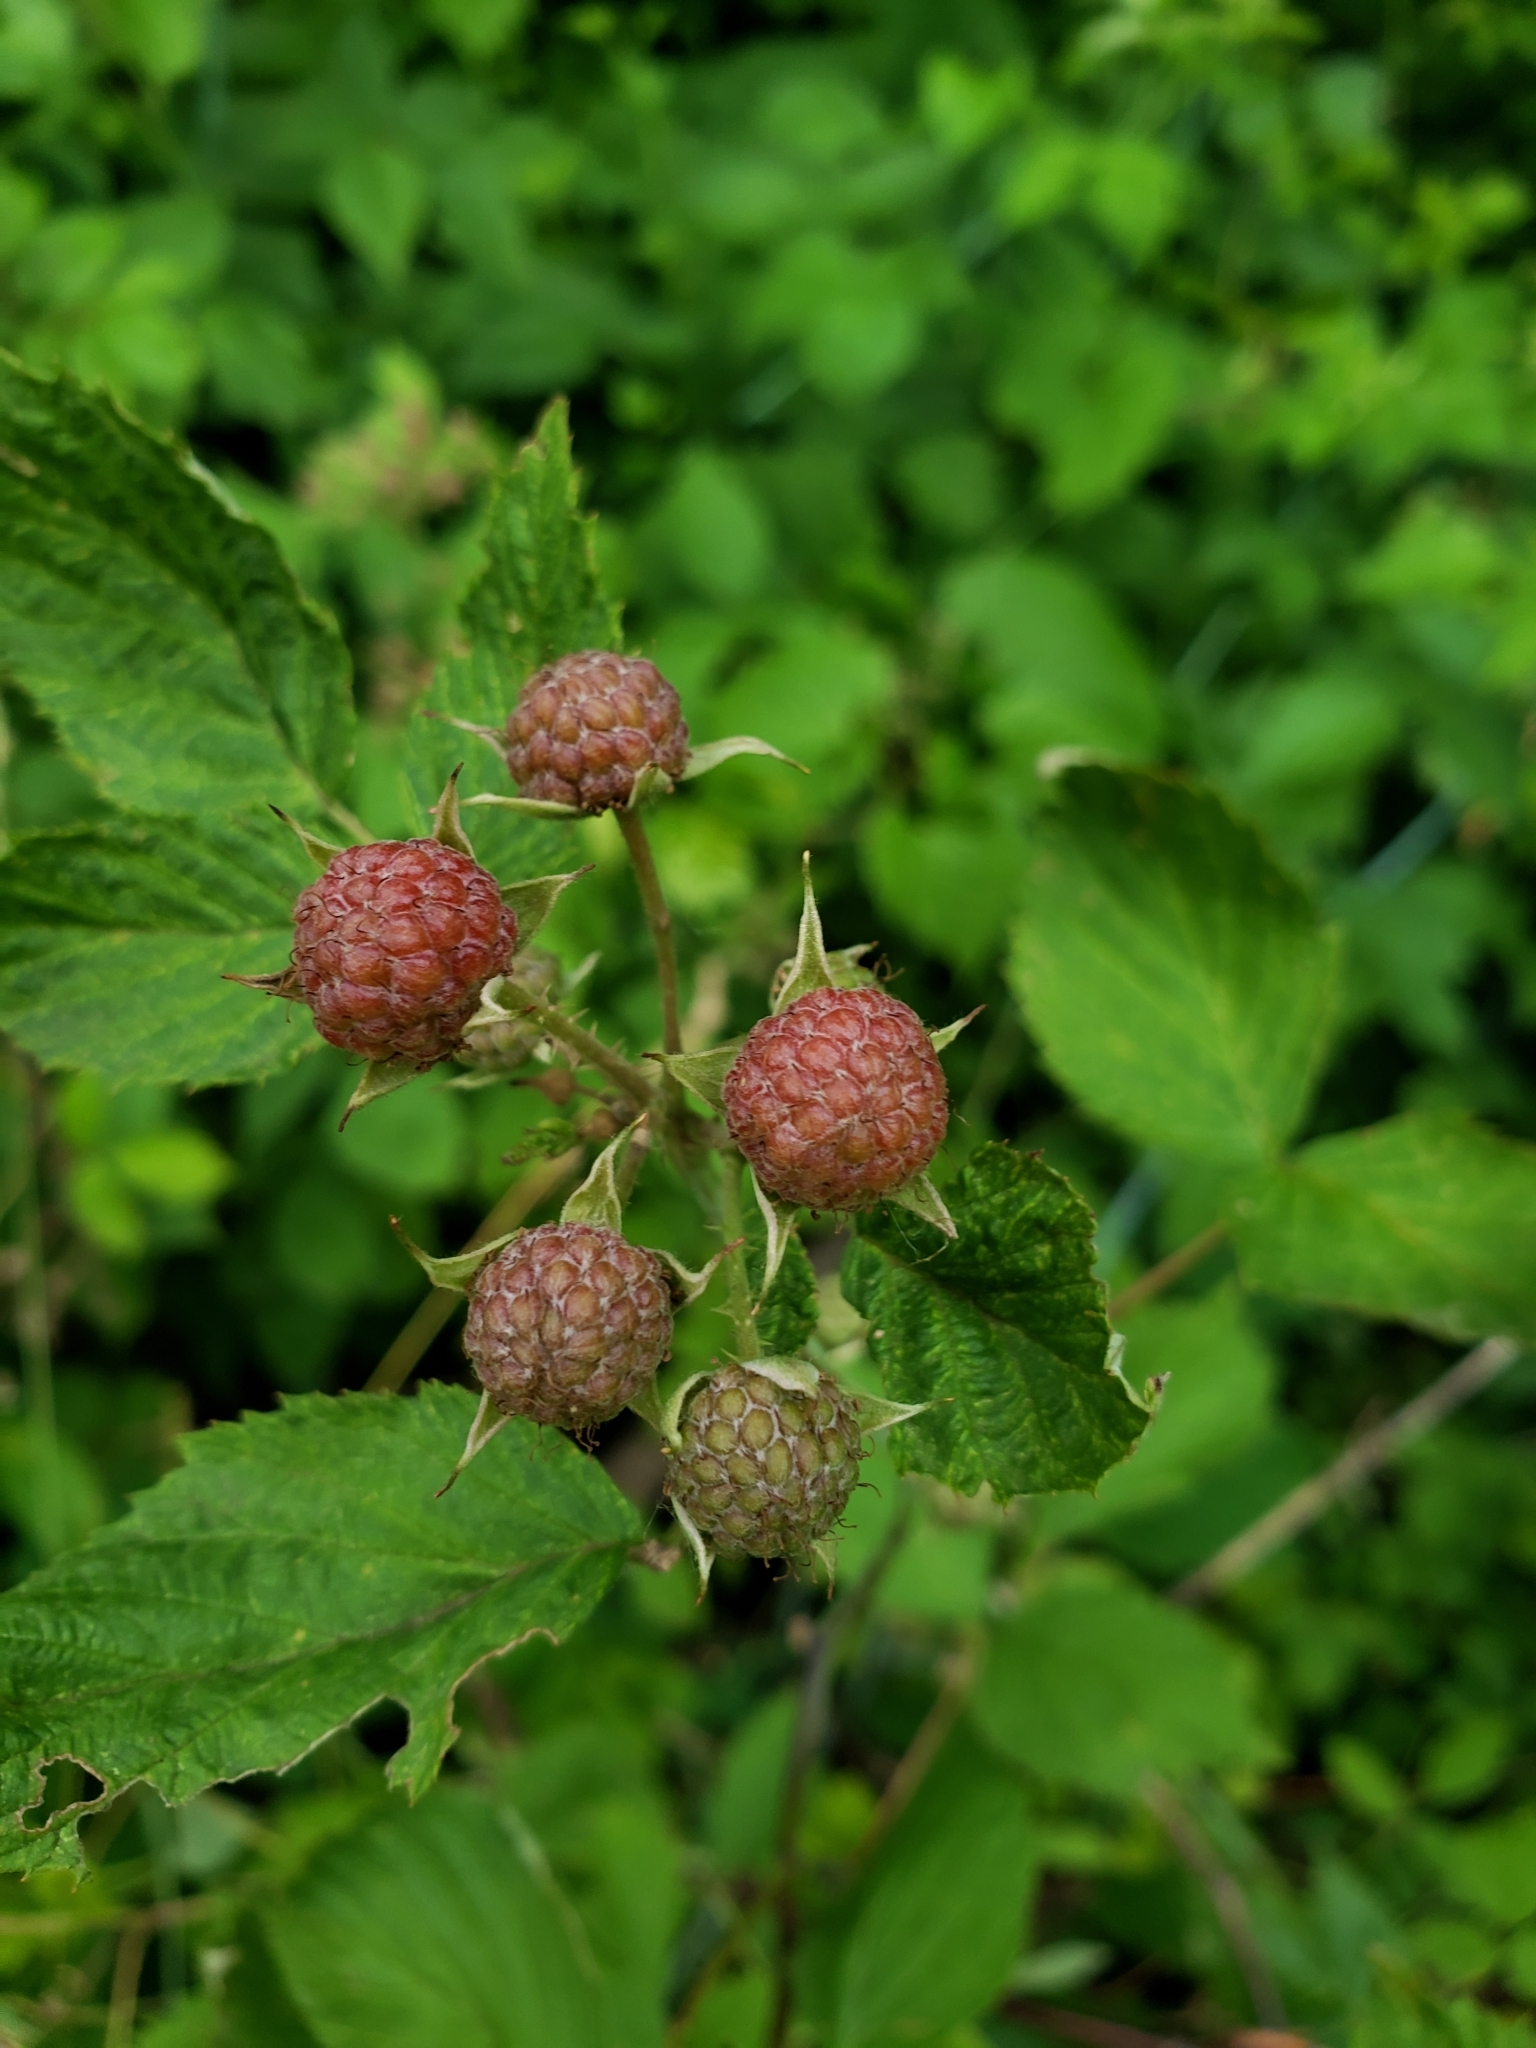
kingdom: Plantae
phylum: Tracheophyta
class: Magnoliopsida
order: Rosales
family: Rosaceae
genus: Rubus
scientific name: Rubus occidentalis
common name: Black raspberry
